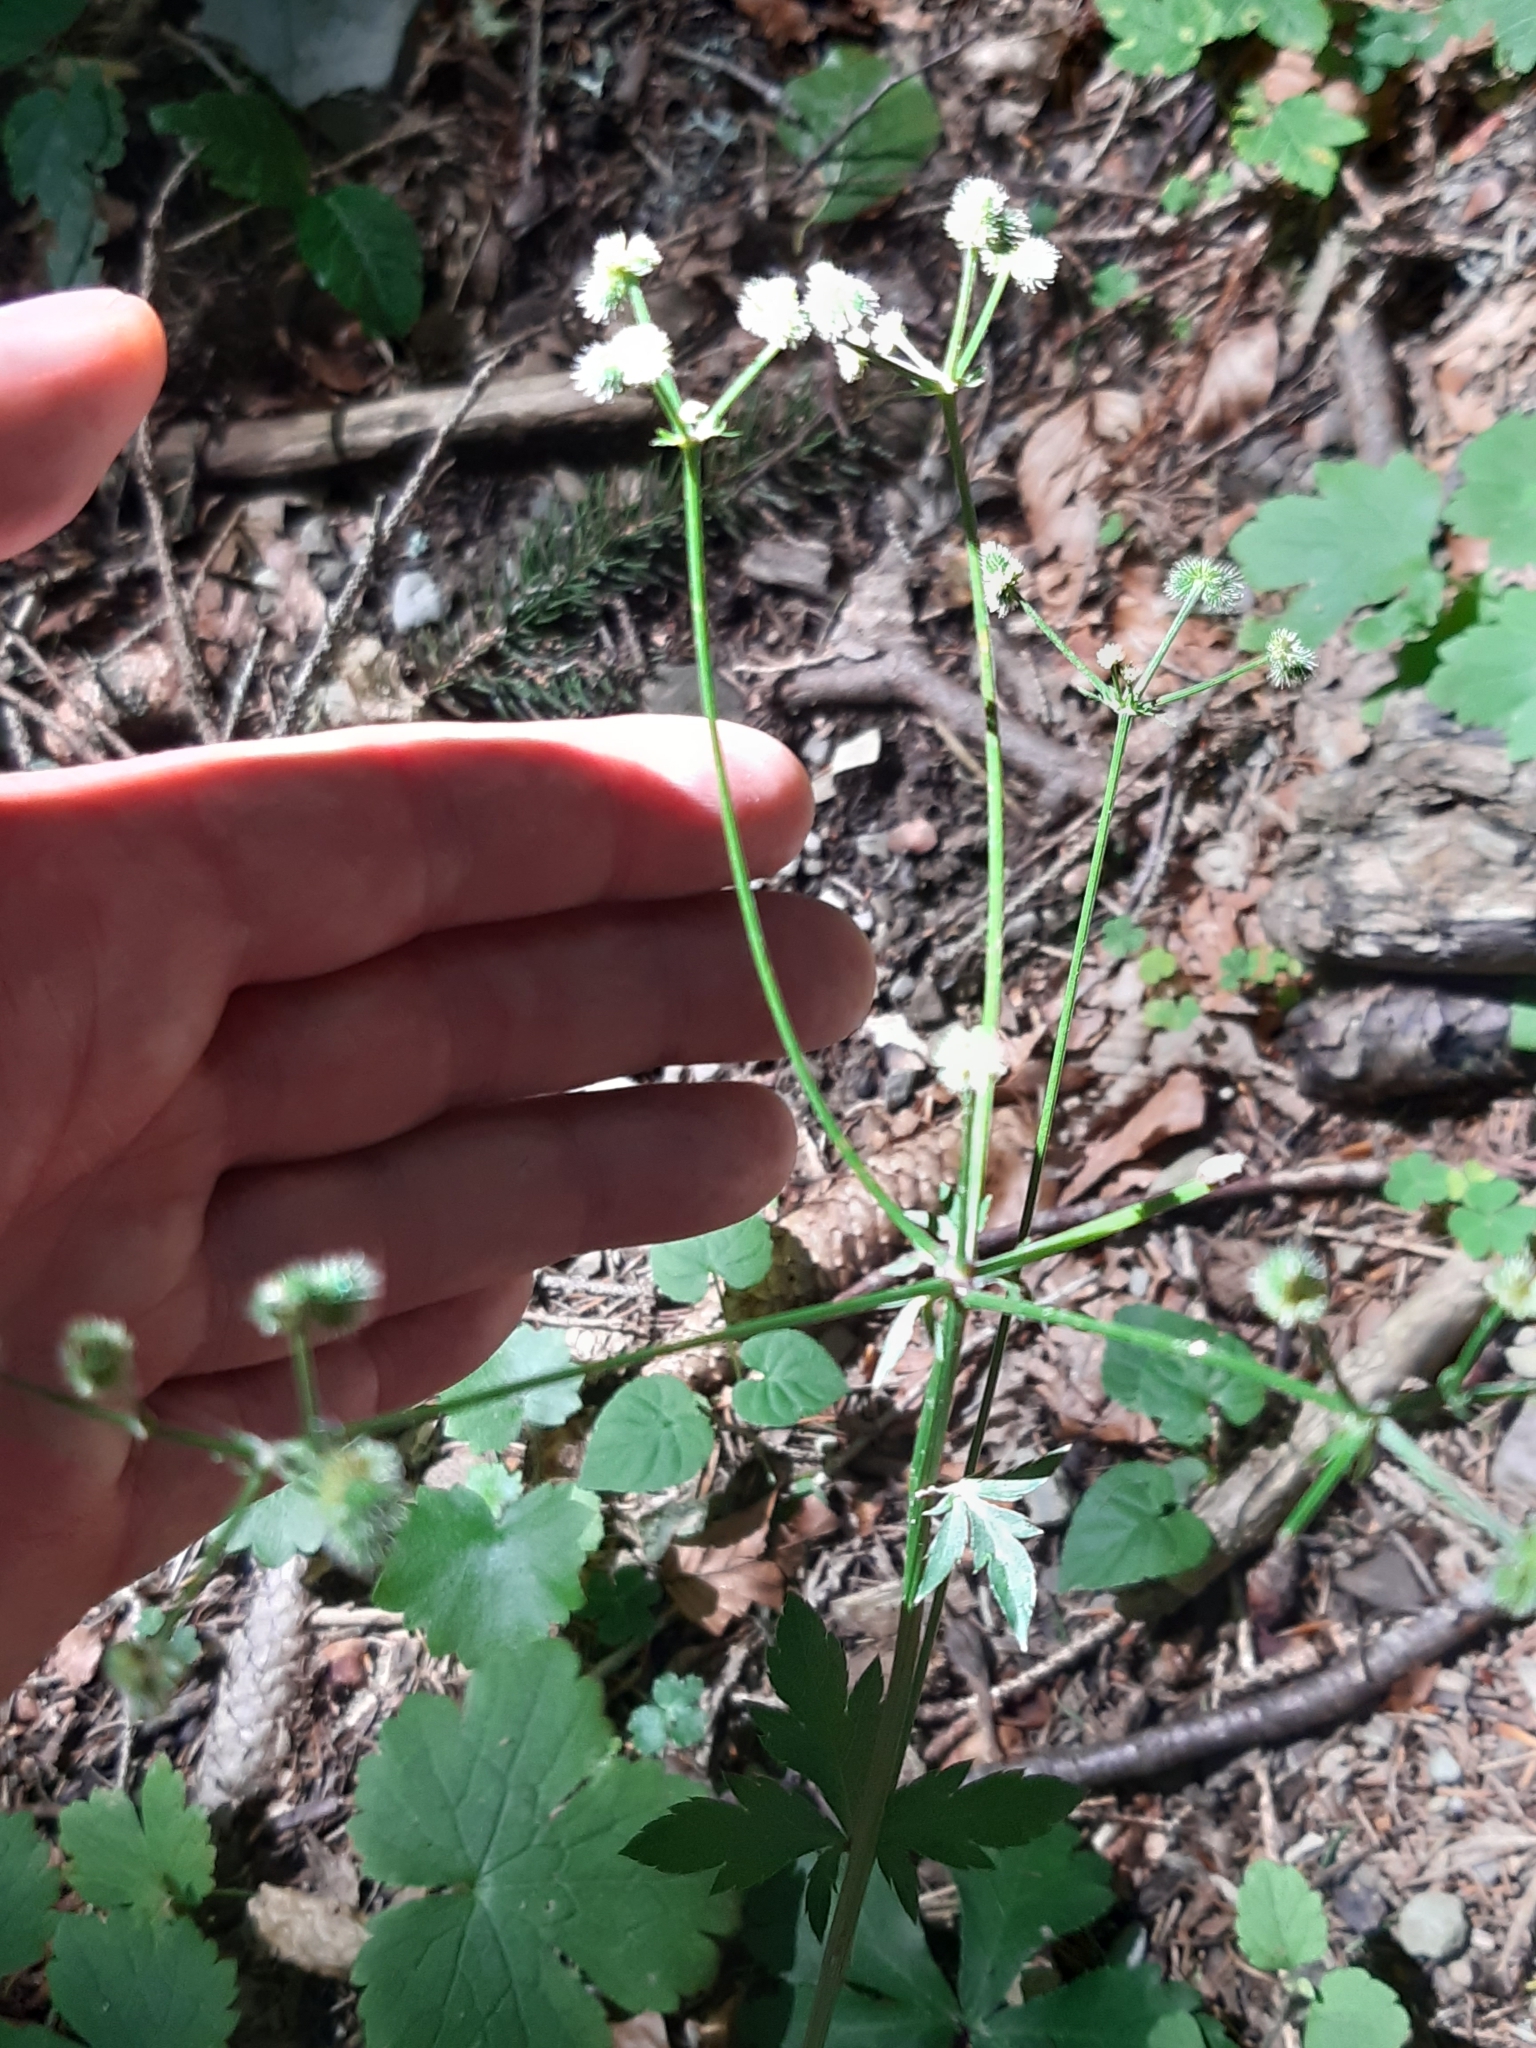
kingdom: Plantae
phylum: Tracheophyta
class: Magnoliopsida
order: Apiales
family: Apiaceae
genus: Sanicula
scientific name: Sanicula europaea
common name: Sanicle
